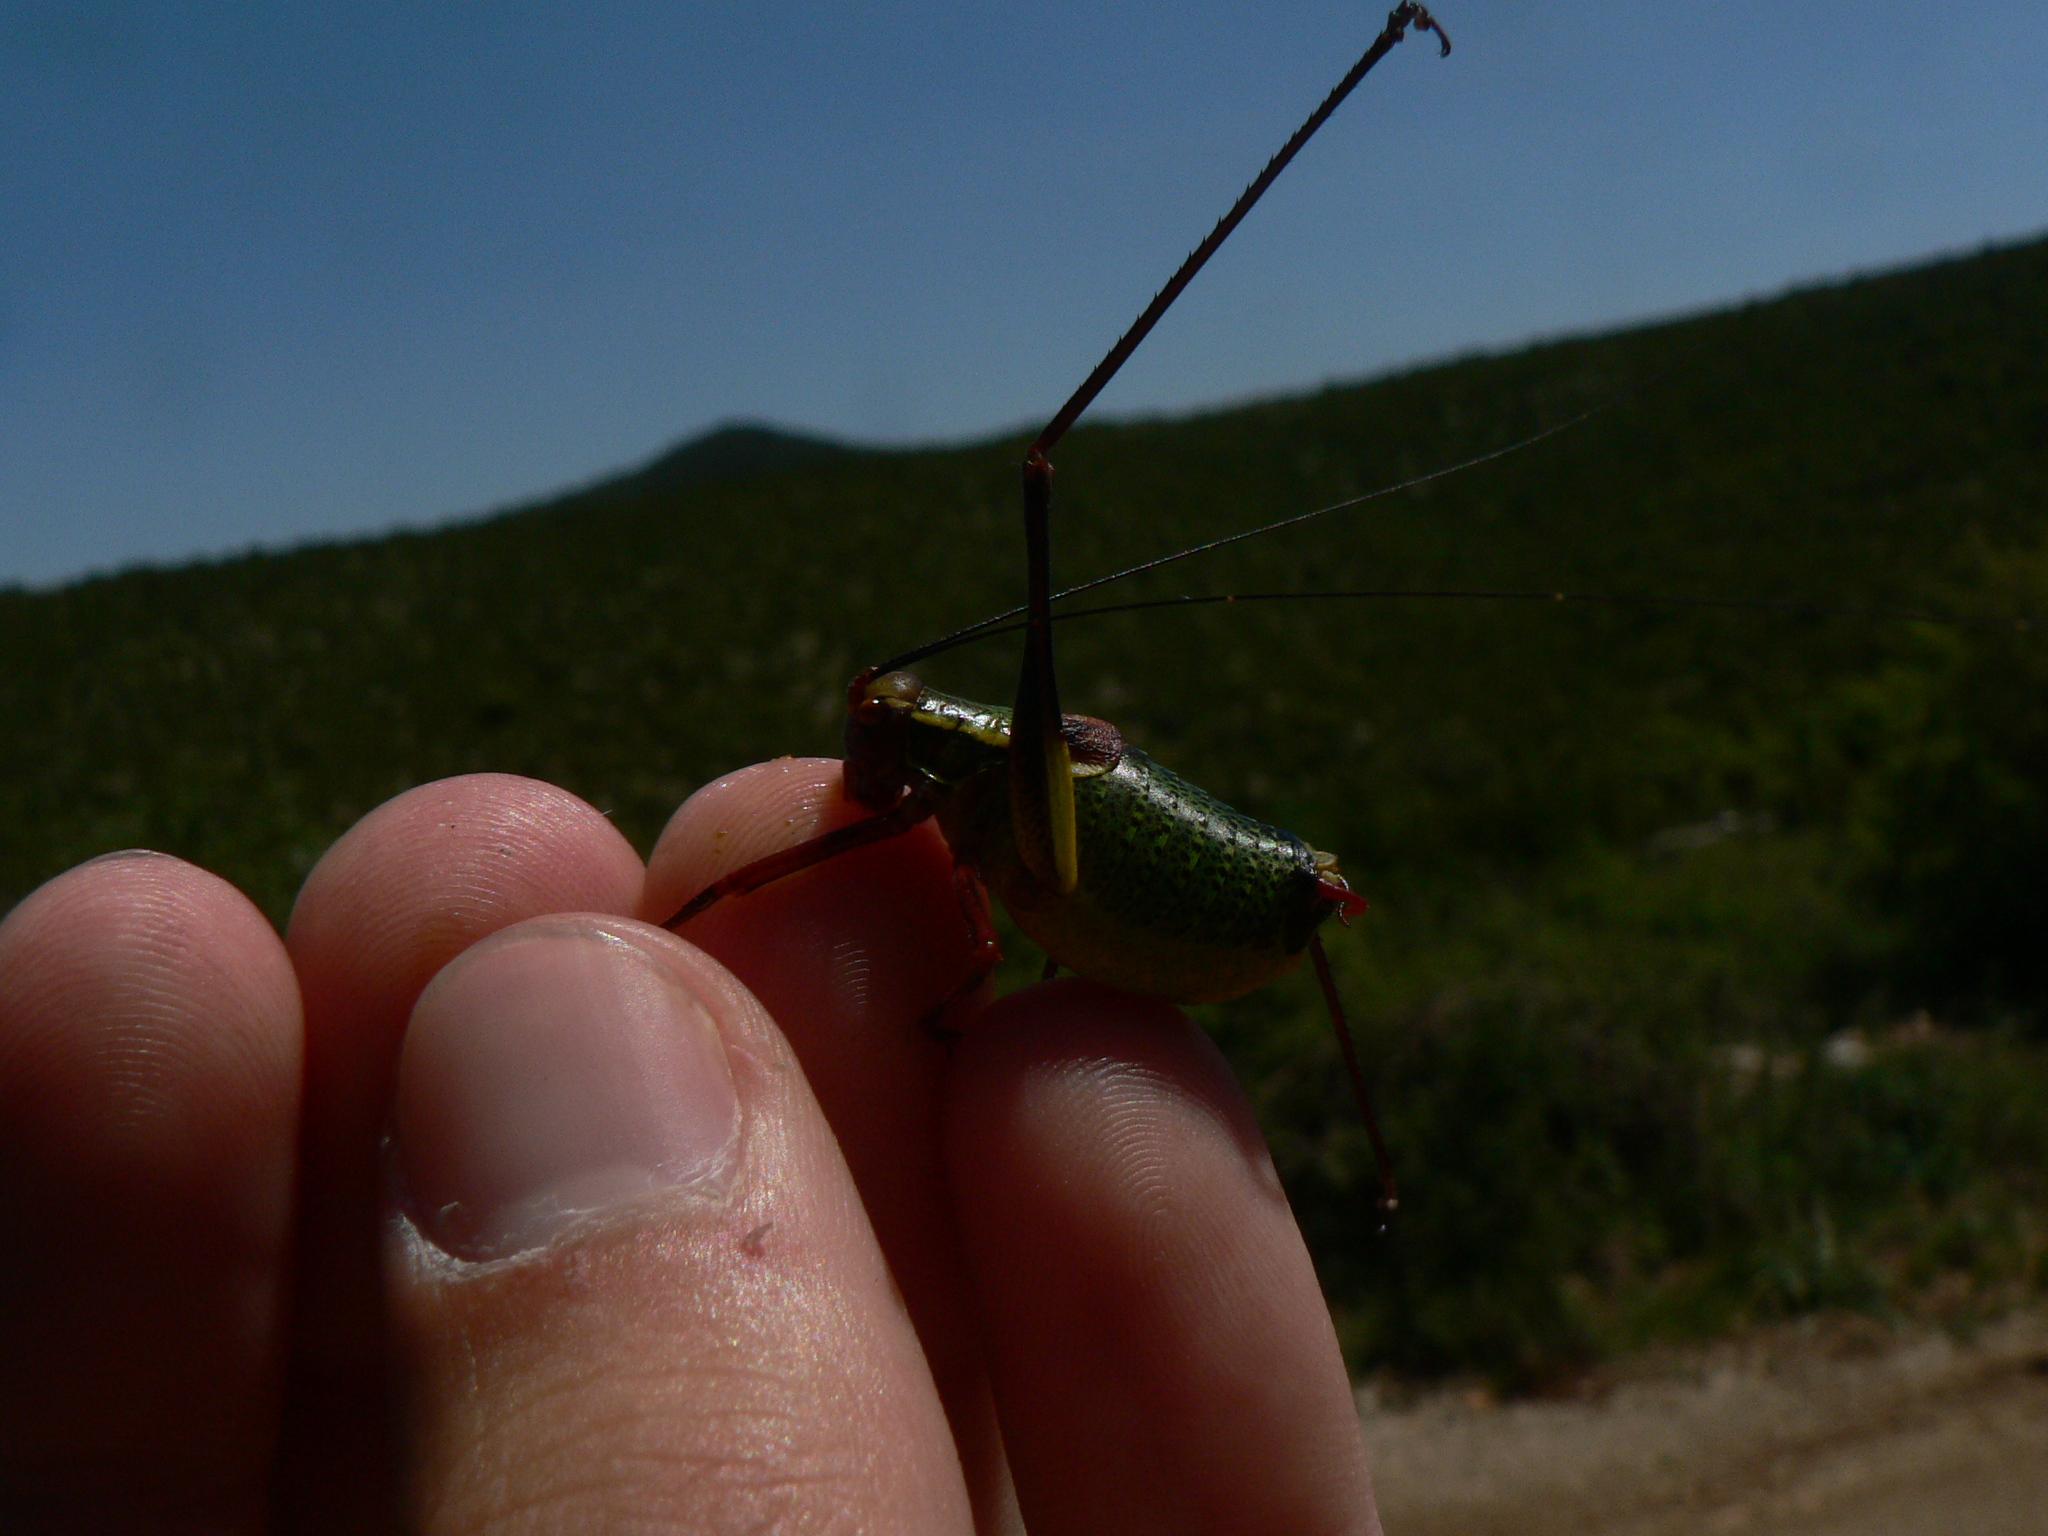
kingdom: Animalia
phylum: Arthropoda
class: Insecta
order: Orthoptera
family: Tettigoniidae
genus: Barbitistes
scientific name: Barbitistes fischeri
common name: Southern saw-tailed bush-cricket
